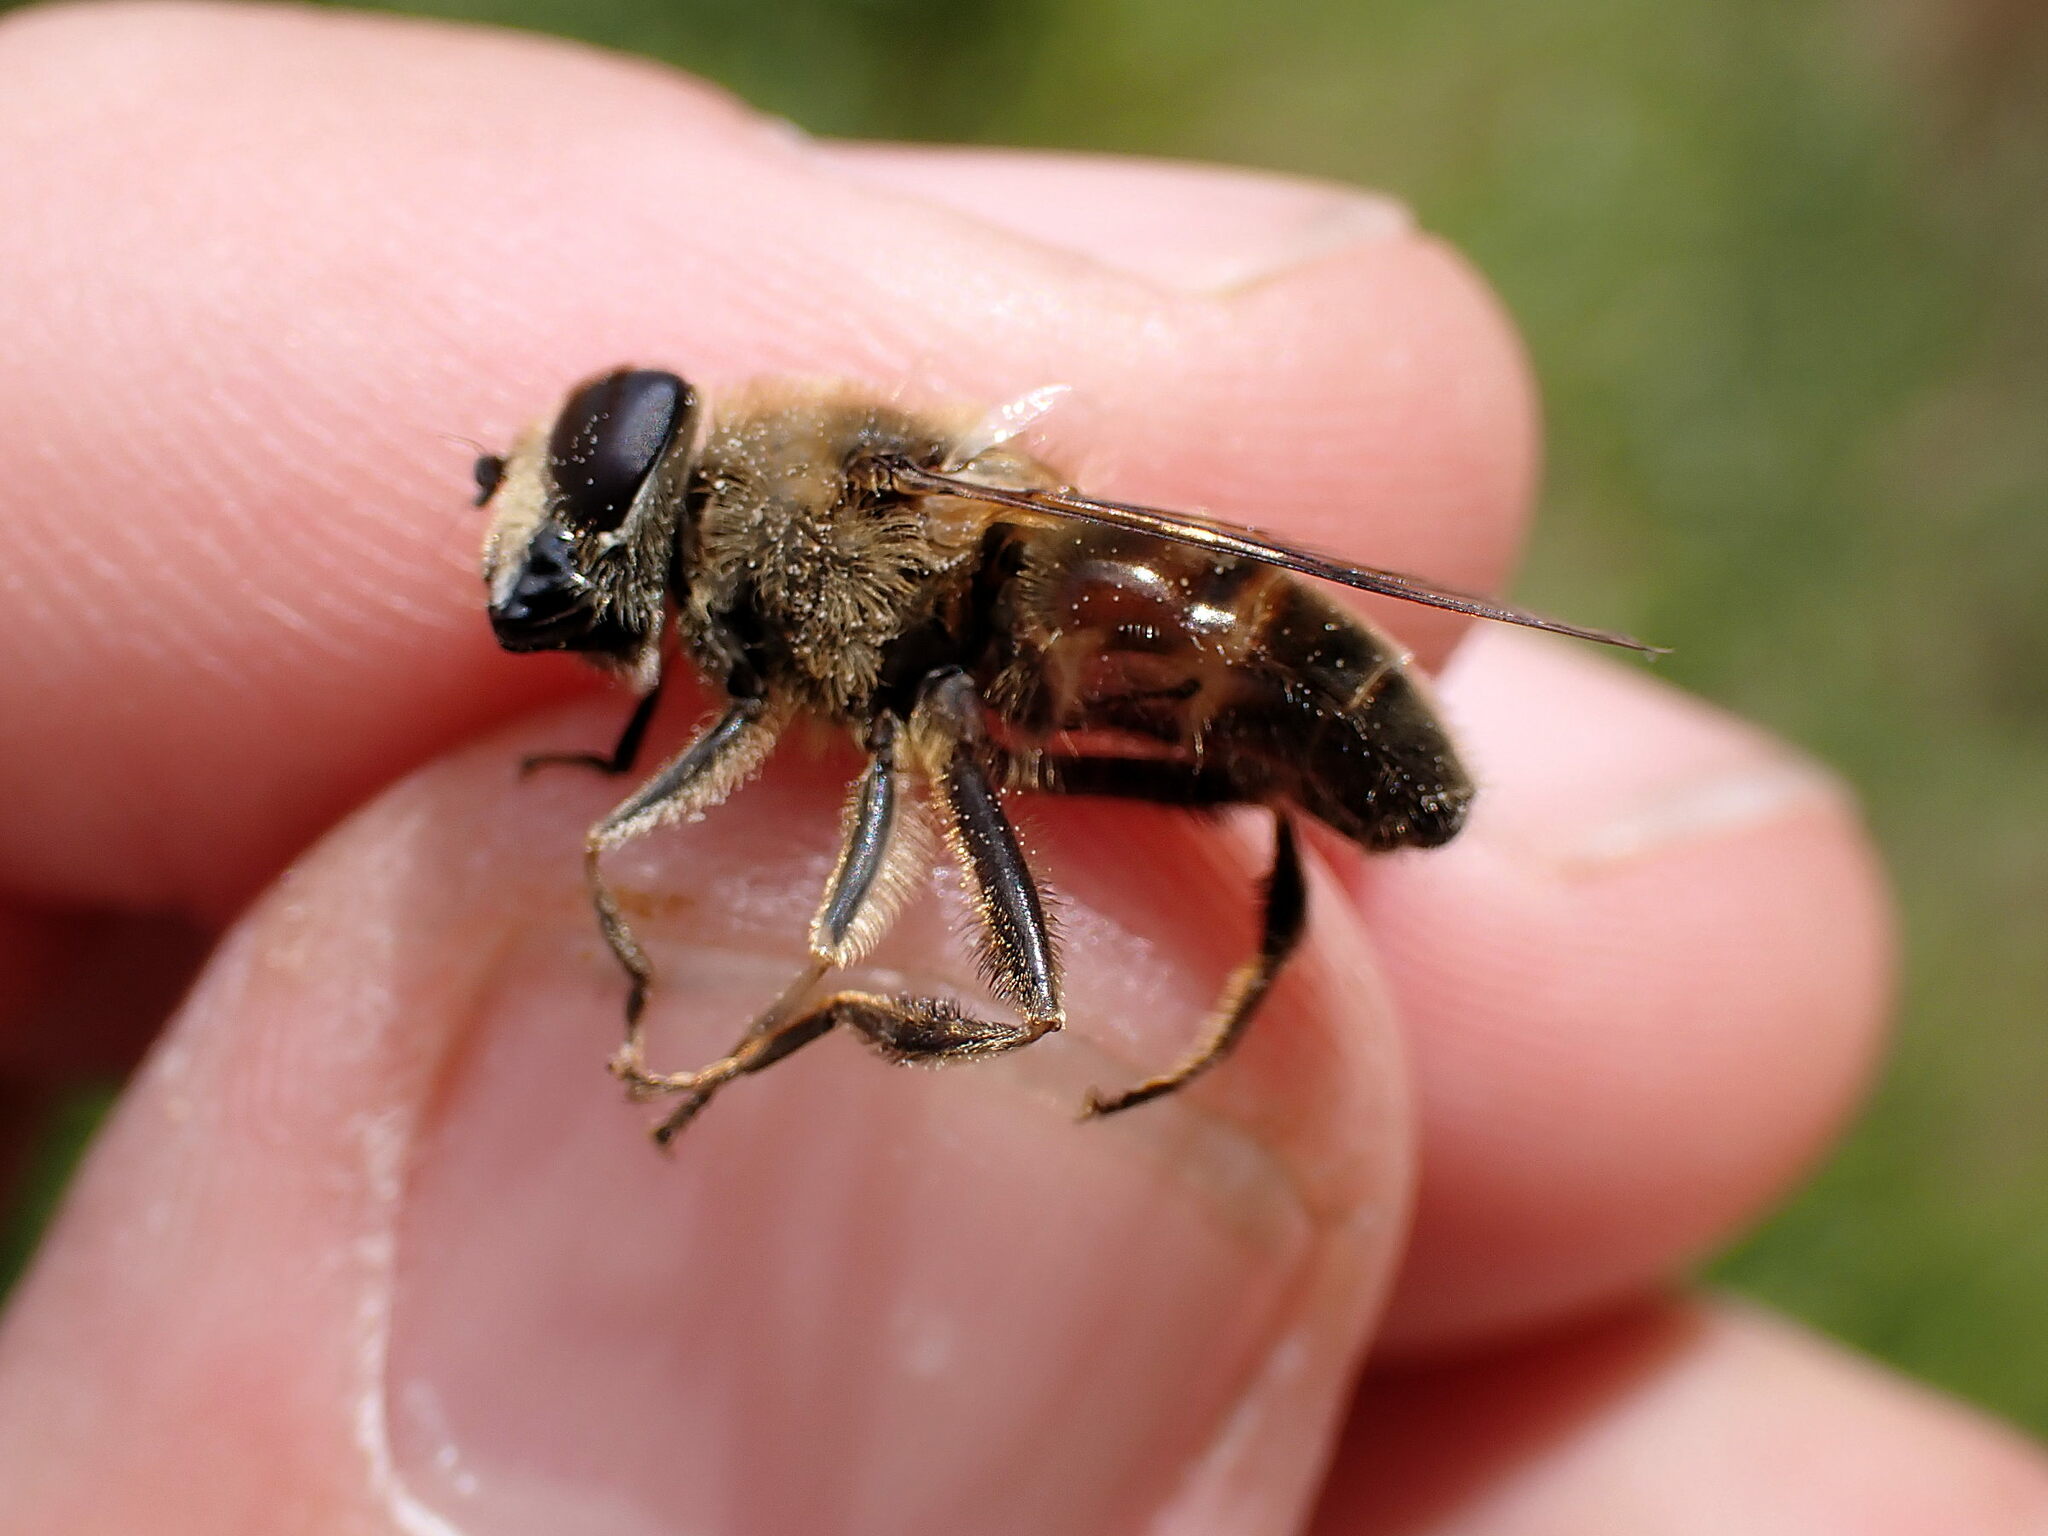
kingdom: Animalia
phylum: Arthropoda
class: Insecta
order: Diptera
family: Syrphidae
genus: Eristalis
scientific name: Eristalis tenax
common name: Drone fly
